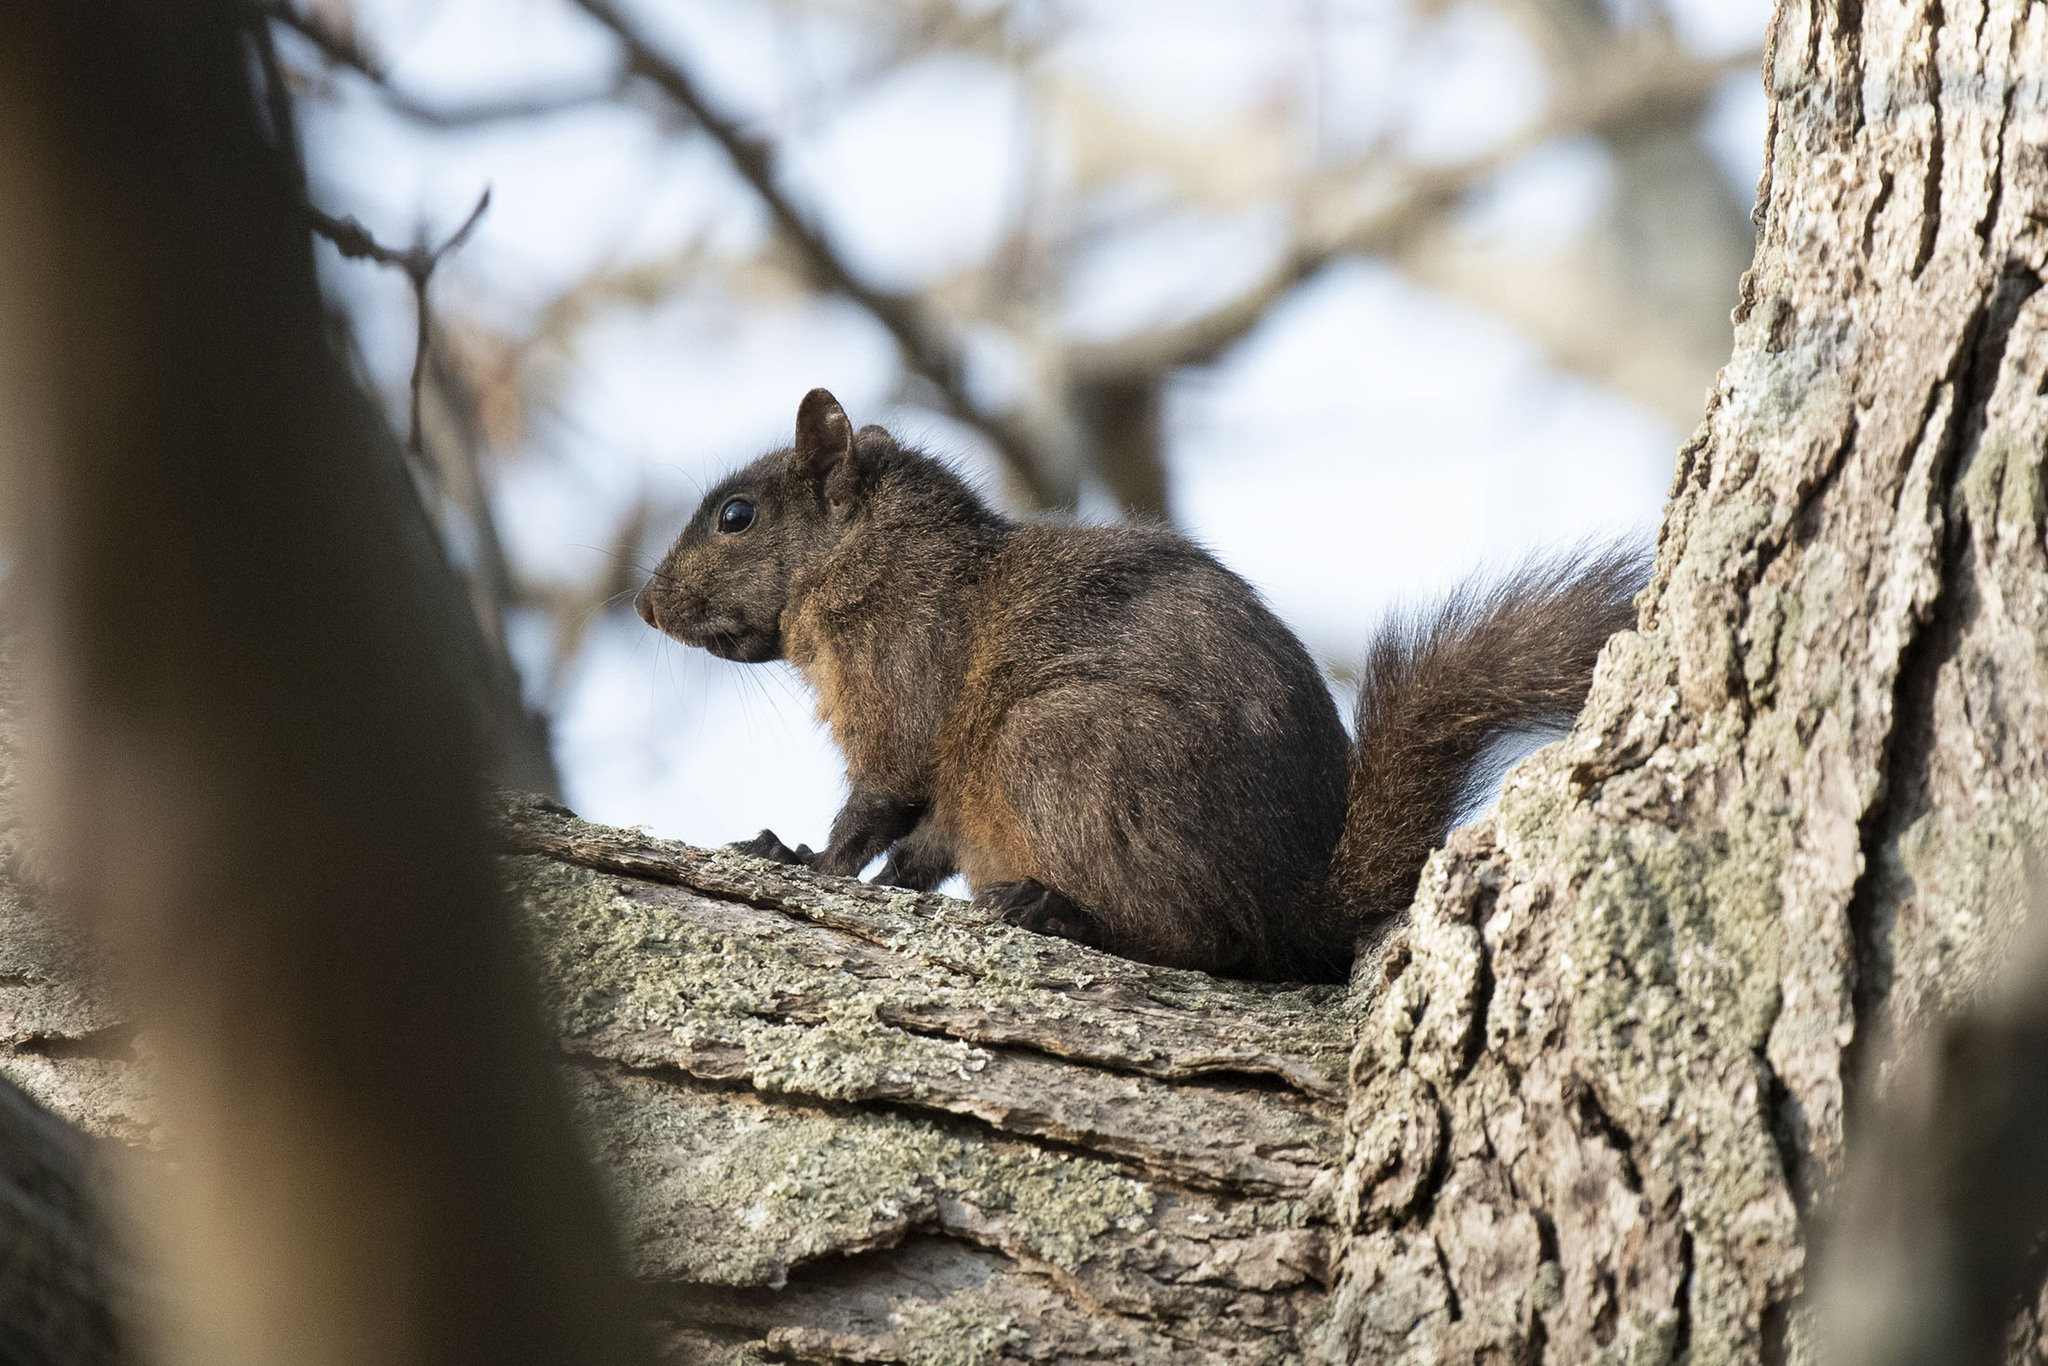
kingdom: Animalia
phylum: Chordata
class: Mammalia
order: Rodentia
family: Sciuridae
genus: Sciurus
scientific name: Sciurus carolinensis
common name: Eastern gray squirrel
